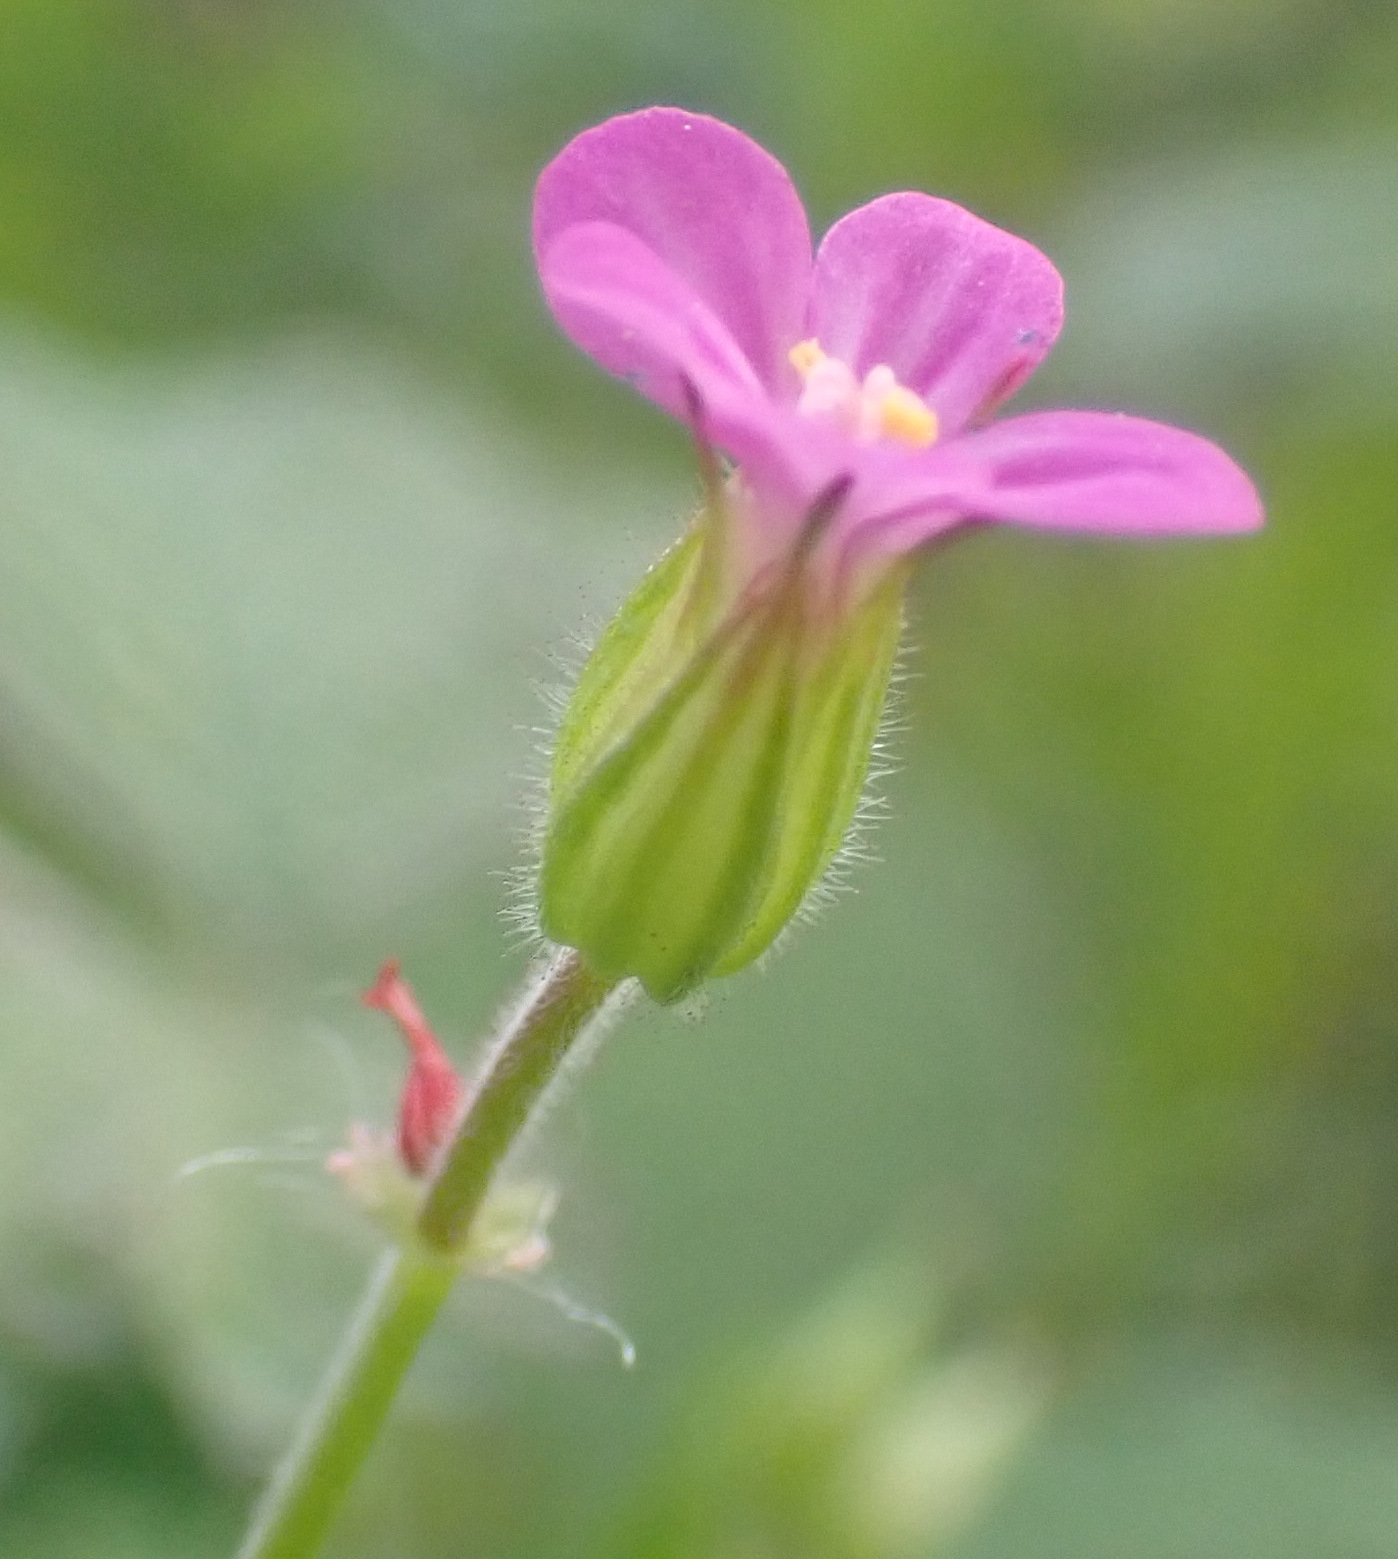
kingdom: Plantae
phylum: Tracheophyta
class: Magnoliopsida
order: Geraniales
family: Geraniaceae
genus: Geranium
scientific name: Geranium purpureum
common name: Little-robin
